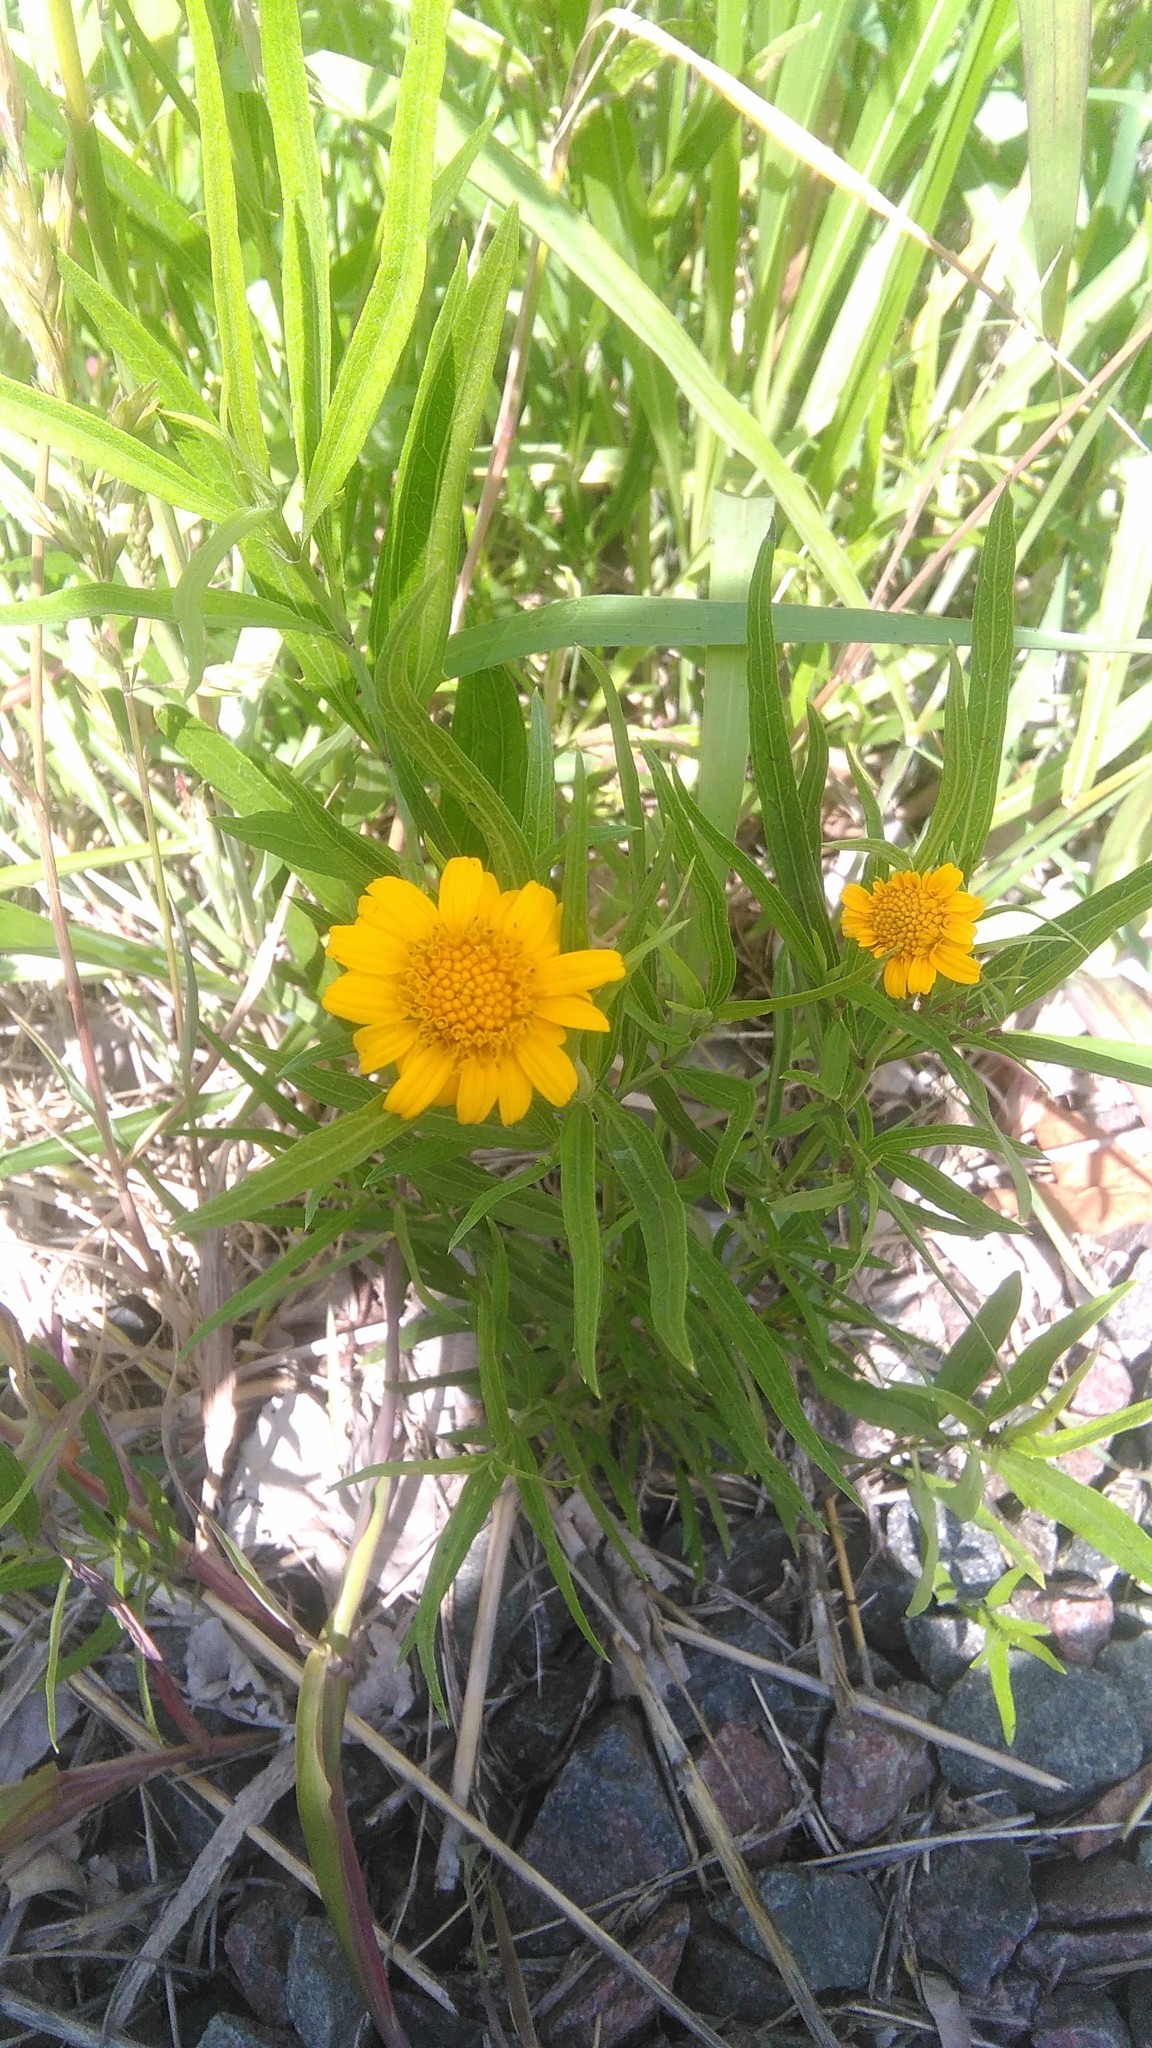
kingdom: Plantae
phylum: Tracheophyta
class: Magnoliopsida
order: Asterales
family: Asteraceae
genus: Pascalia
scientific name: Pascalia glauca
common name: Beach creeping oxeye
